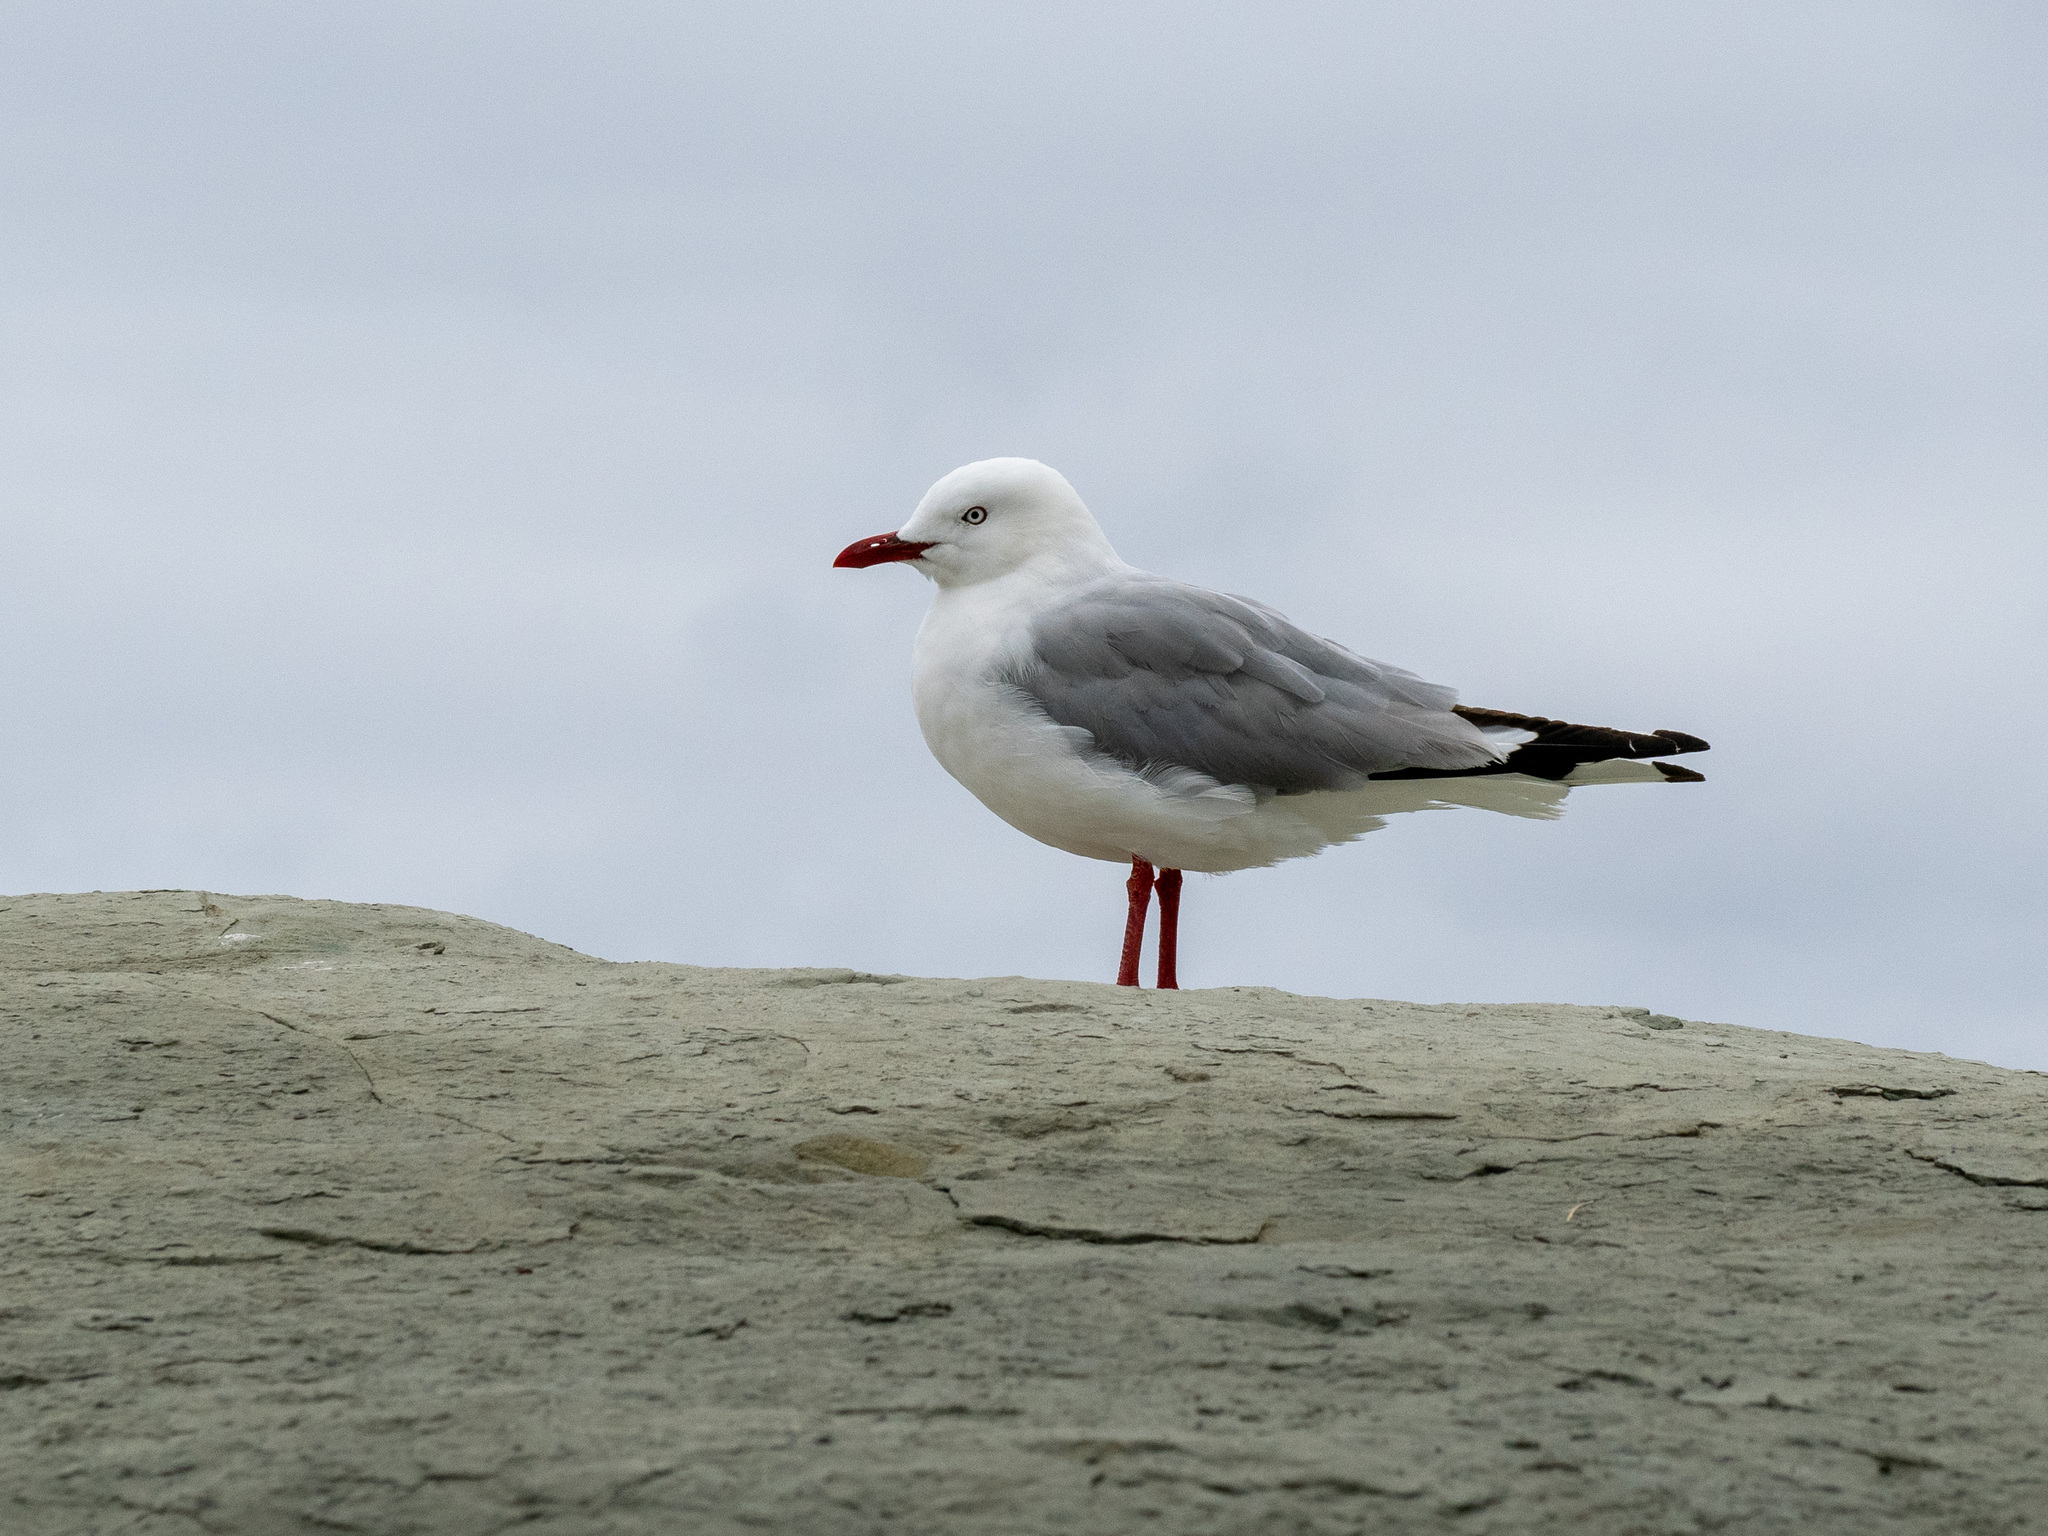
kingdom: Animalia
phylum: Chordata
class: Aves
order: Charadriiformes
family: Laridae
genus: Chroicocephalus
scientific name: Chroicocephalus novaehollandiae
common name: Silver gull
